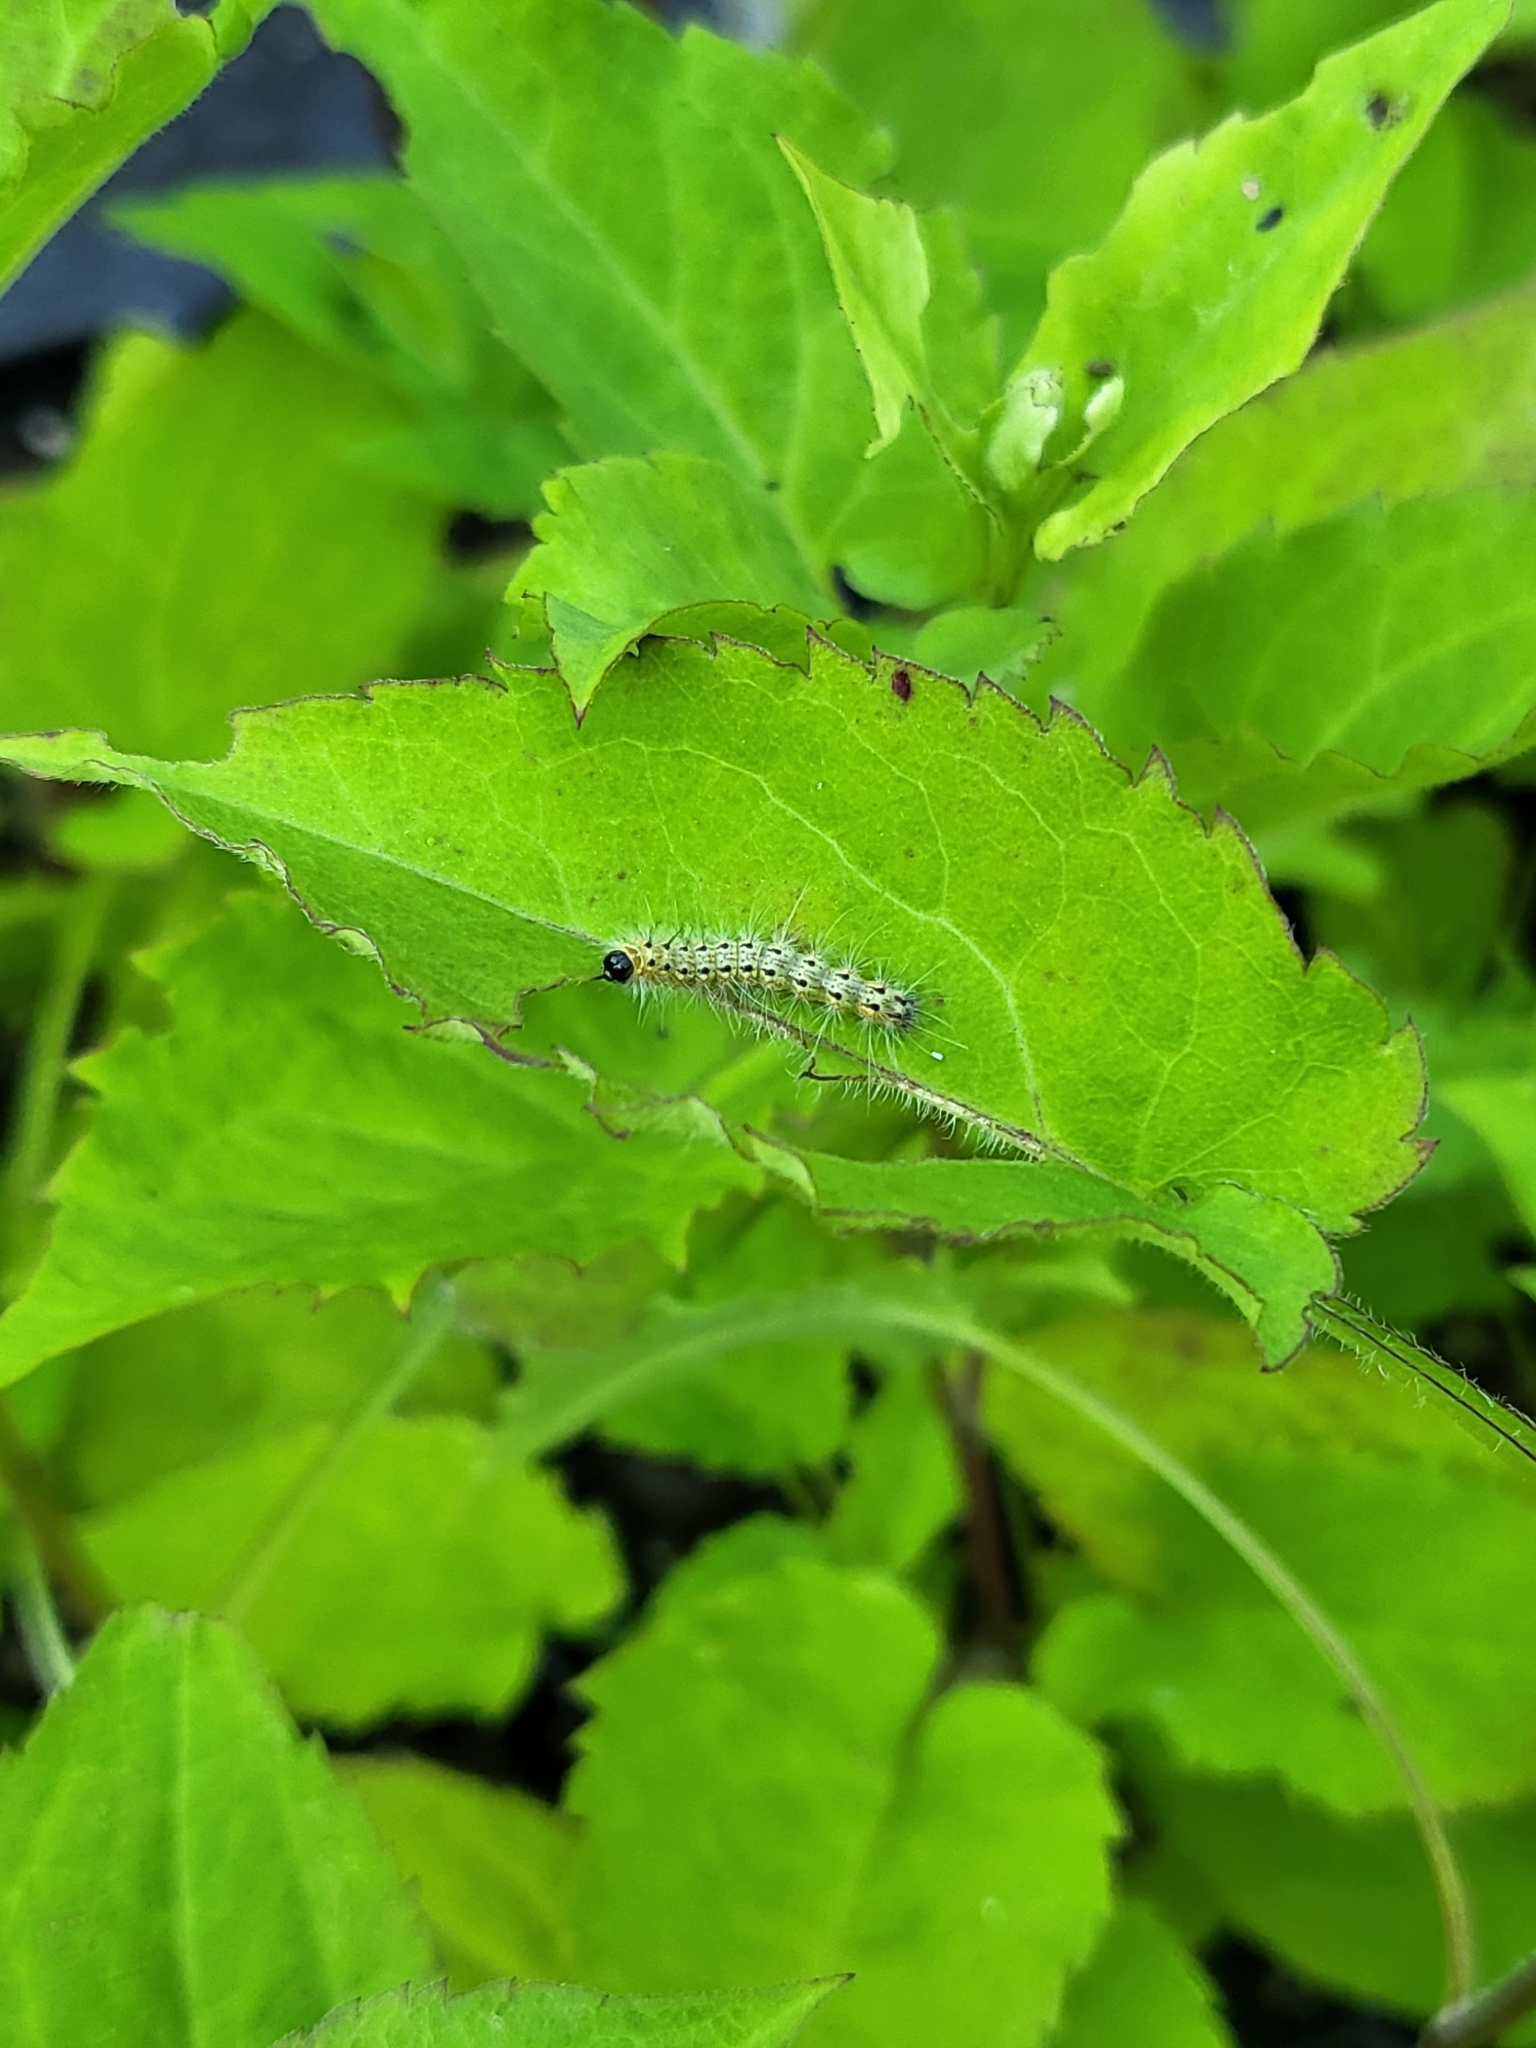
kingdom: Animalia
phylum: Arthropoda
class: Insecta
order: Lepidoptera
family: Erebidae
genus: Hyphantria
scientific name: Hyphantria cunea
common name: American white moth
